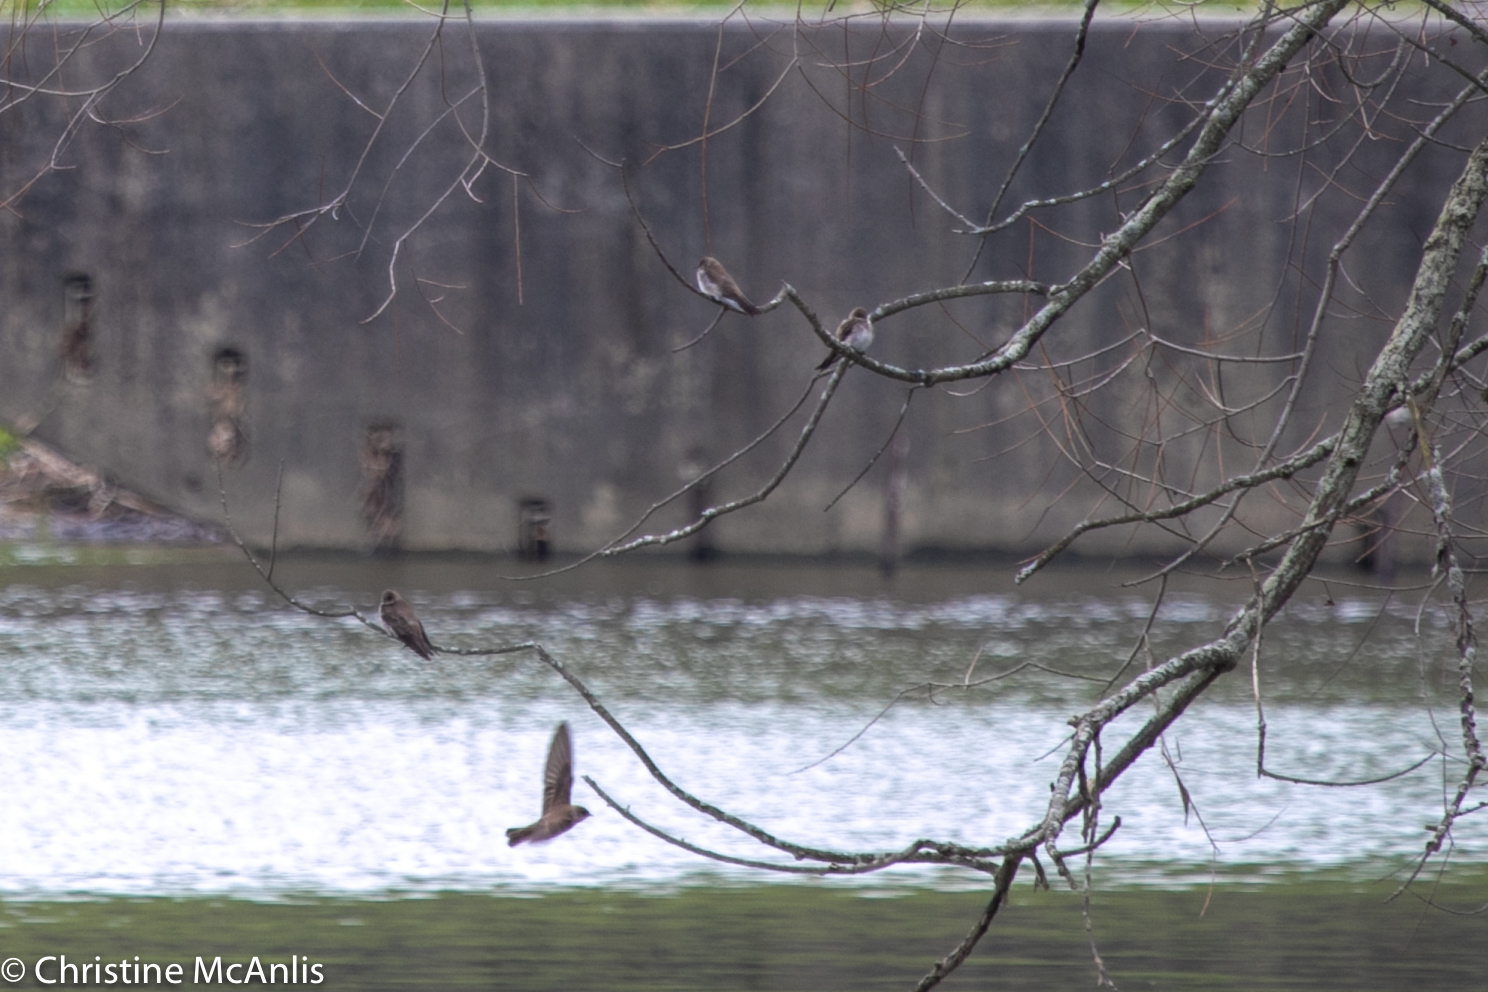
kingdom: Animalia
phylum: Chordata
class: Aves
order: Passeriformes
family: Hirundinidae
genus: Stelgidopteryx
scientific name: Stelgidopteryx serripennis
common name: Northern rough-winged swallow
